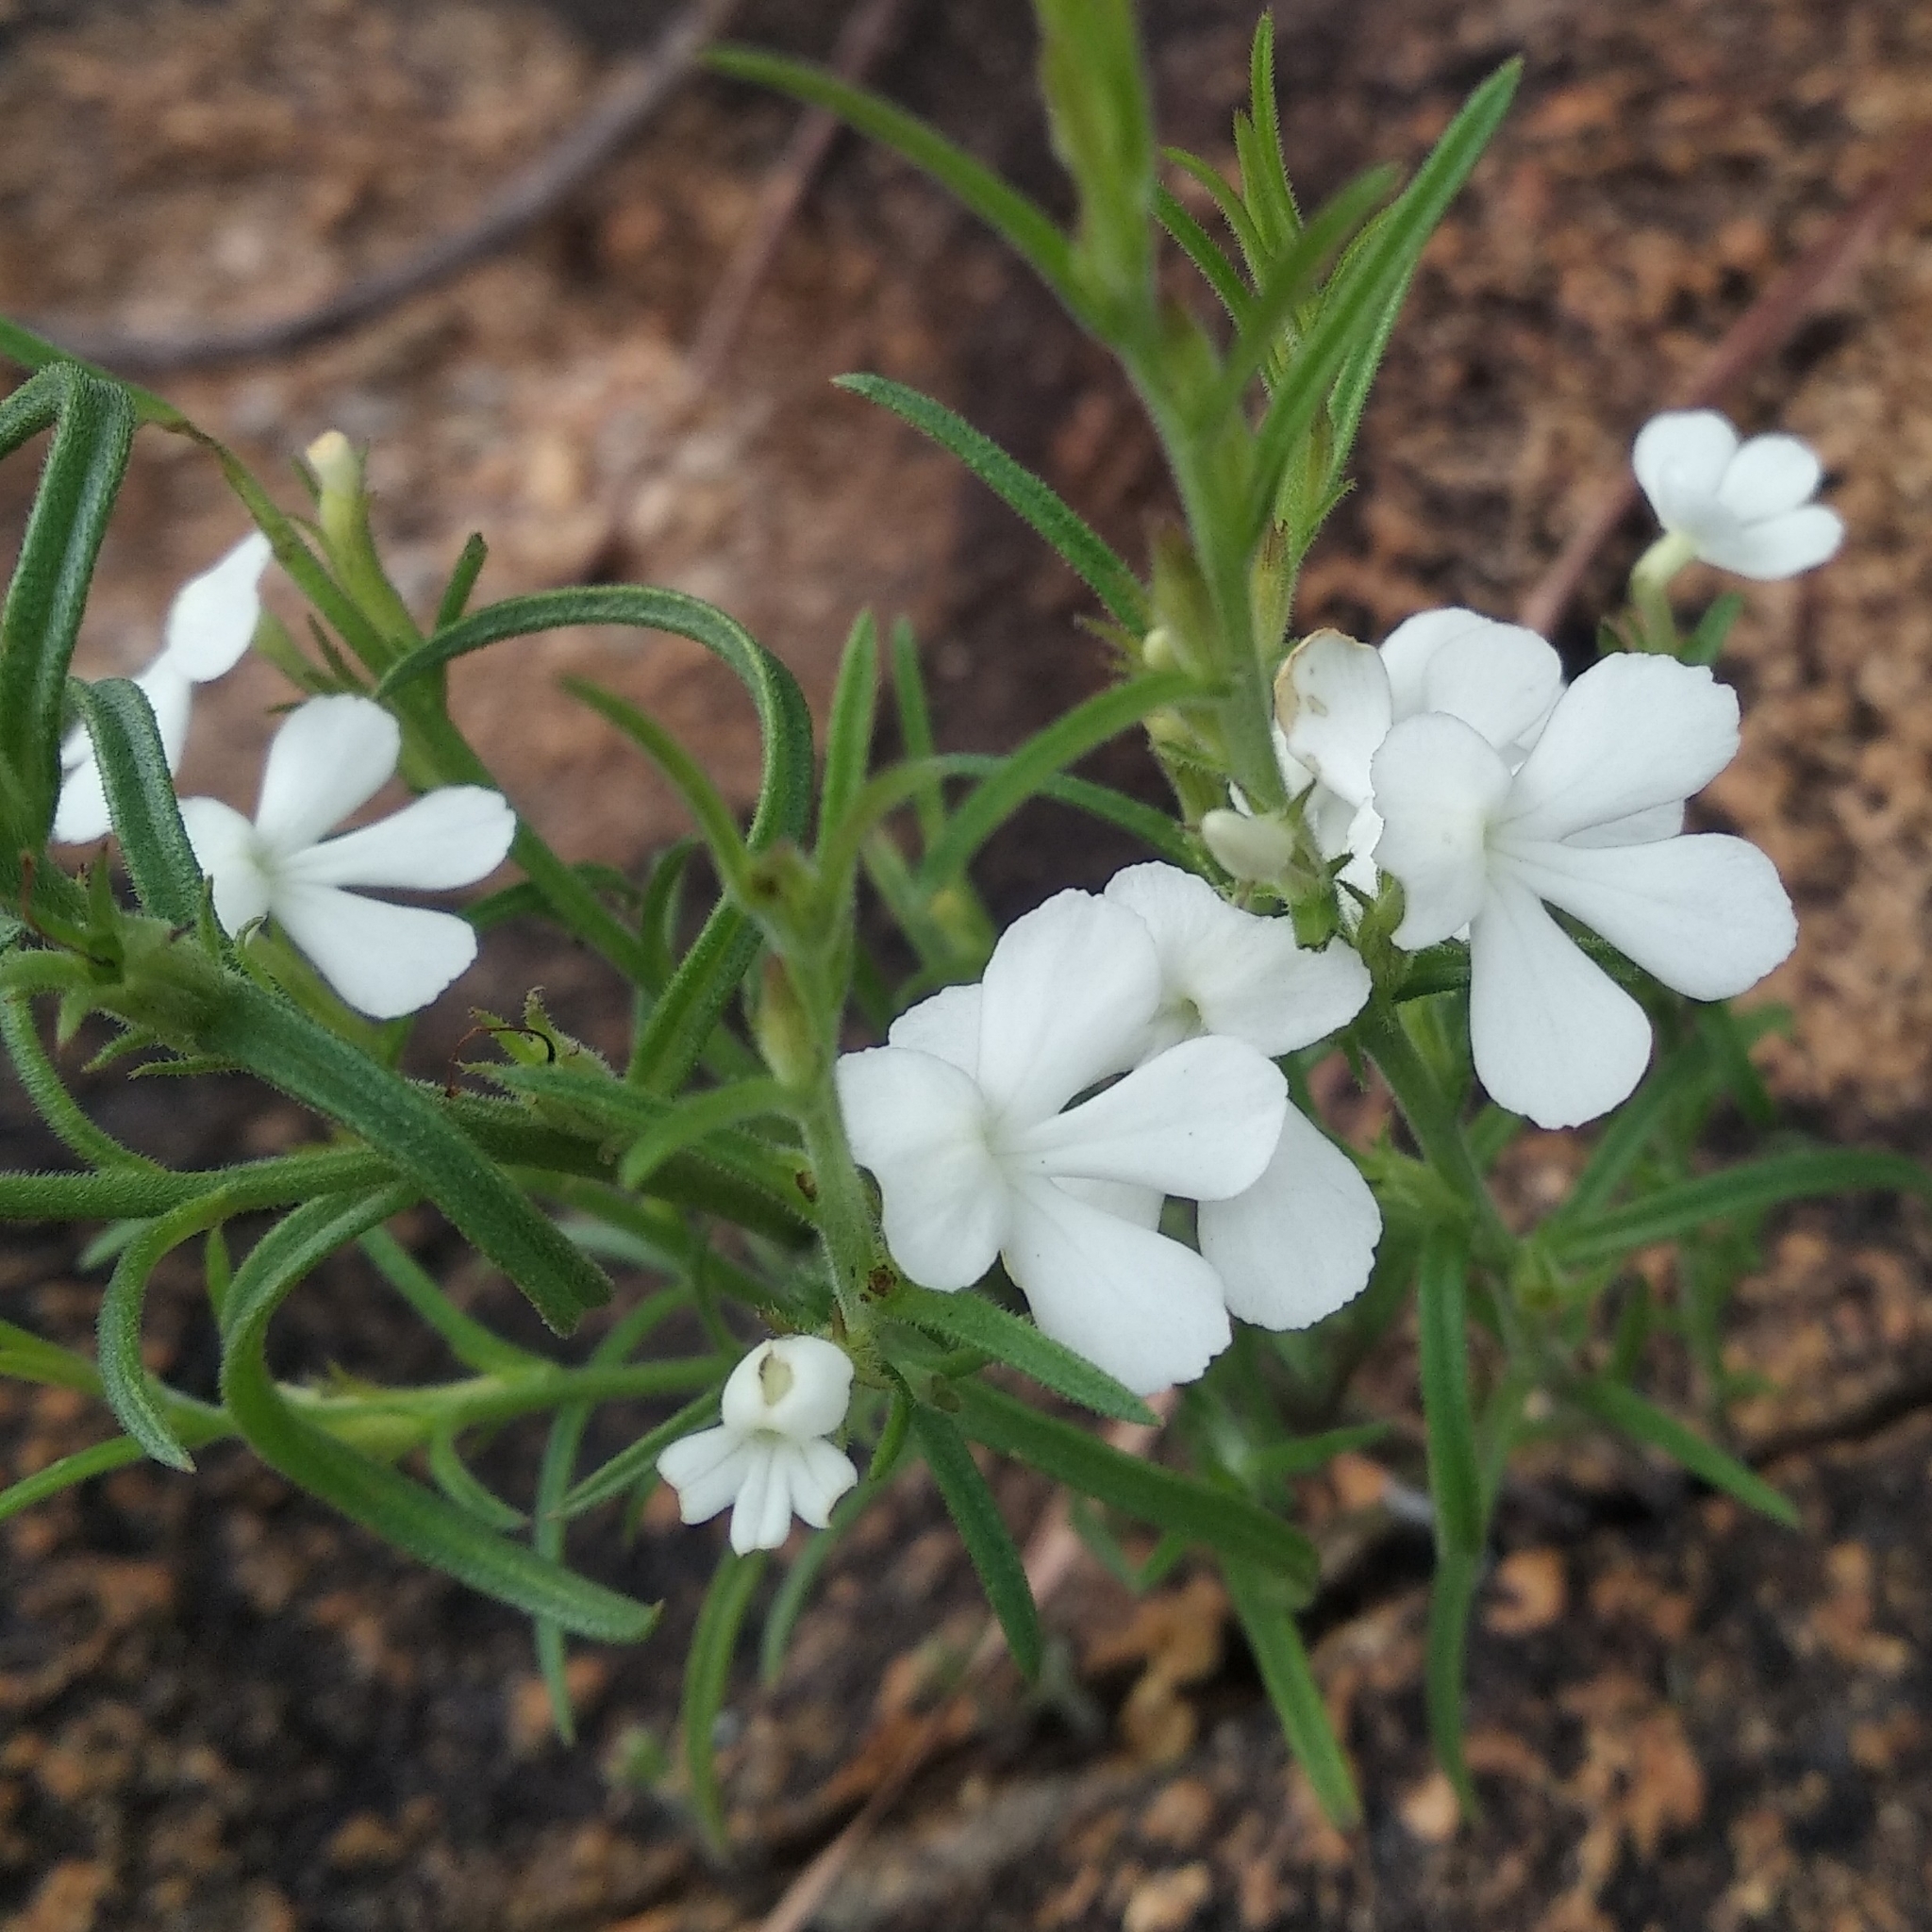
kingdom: Plantae
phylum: Tracheophyta
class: Magnoliopsida
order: Lamiales
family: Orobanchaceae
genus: Striga
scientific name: Striga angustifolia
